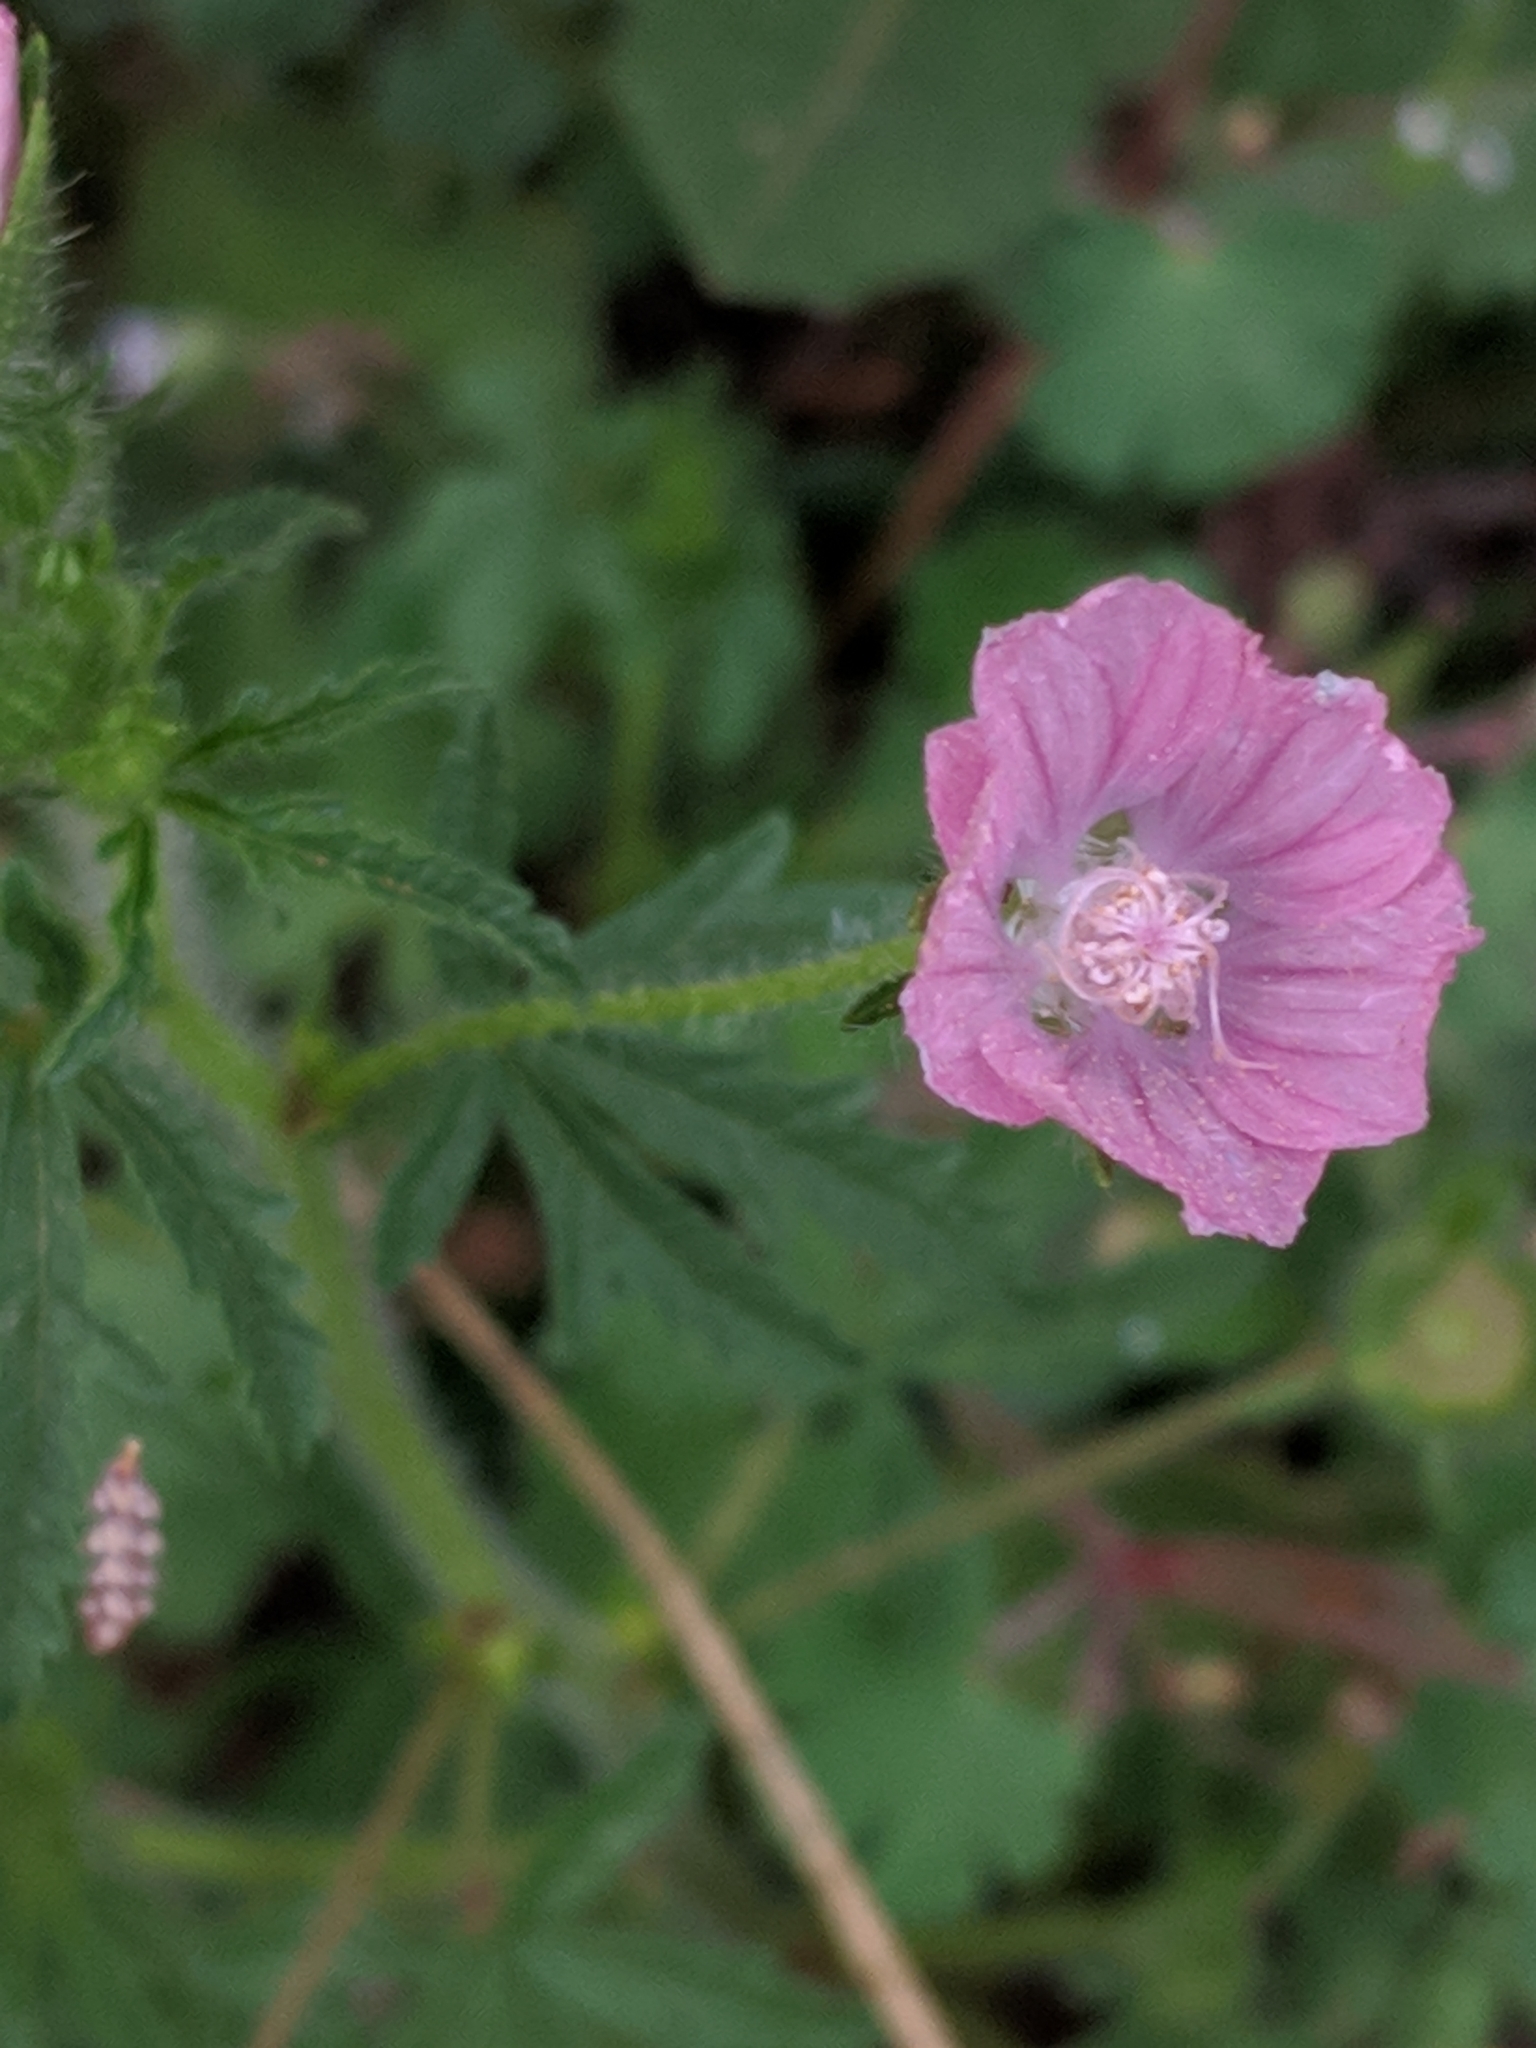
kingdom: Plantae
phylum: Tracheophyta
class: Magnoliopsida
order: Malvales
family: Malvaceae
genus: Malva
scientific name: Malva cretica
